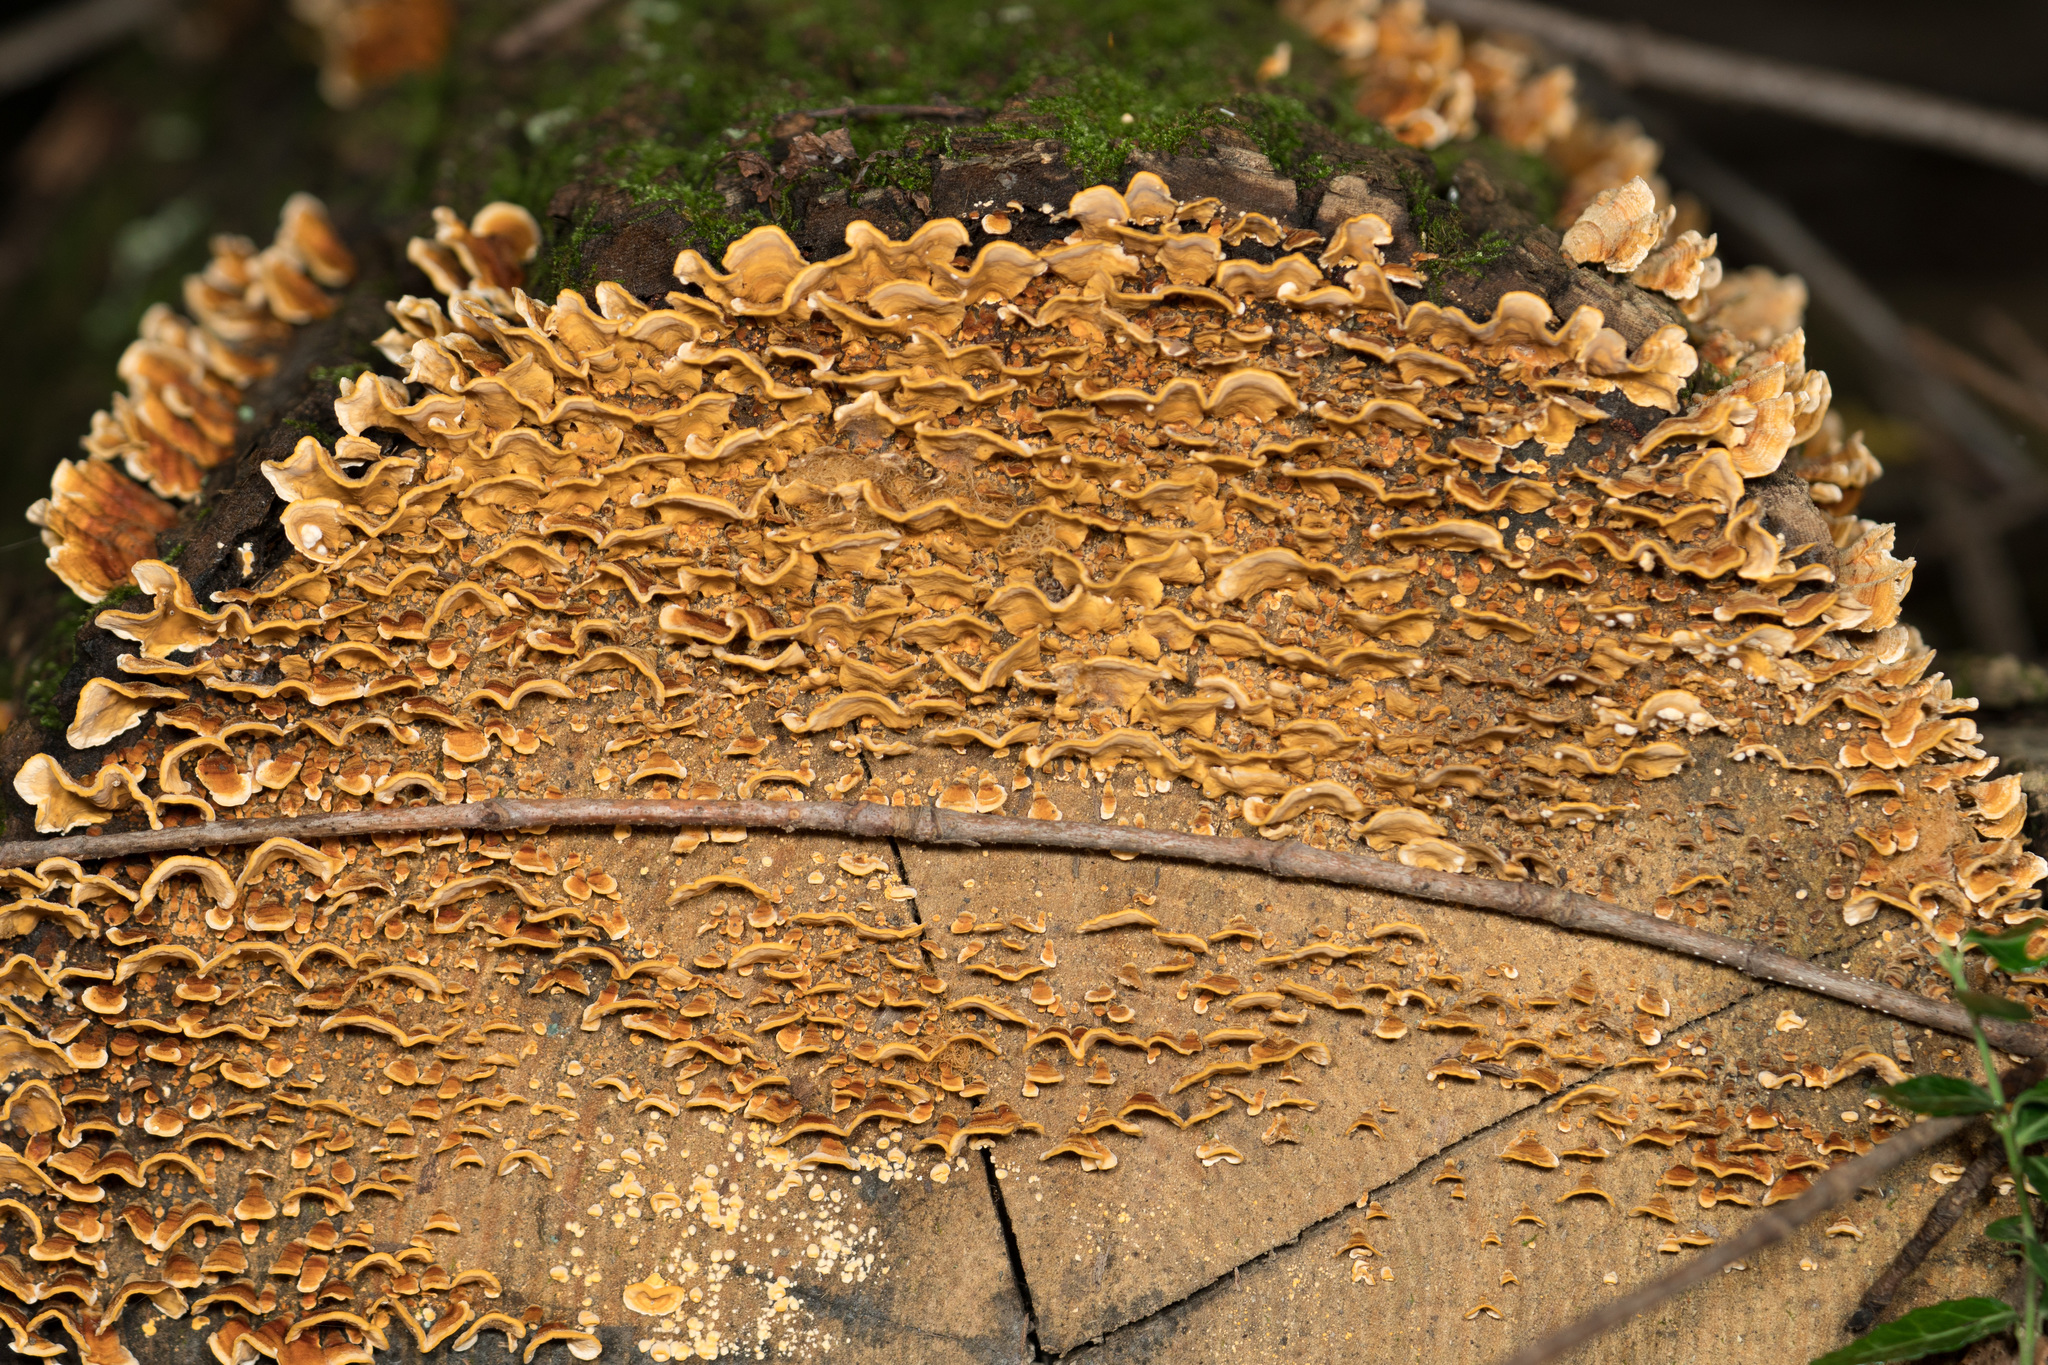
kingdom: Fungi
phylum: Basidiomycota
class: Agaricomycetes
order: Russulales
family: Stereaceae
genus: Stereum
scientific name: Stereum complicatum
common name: Crowded parchment
